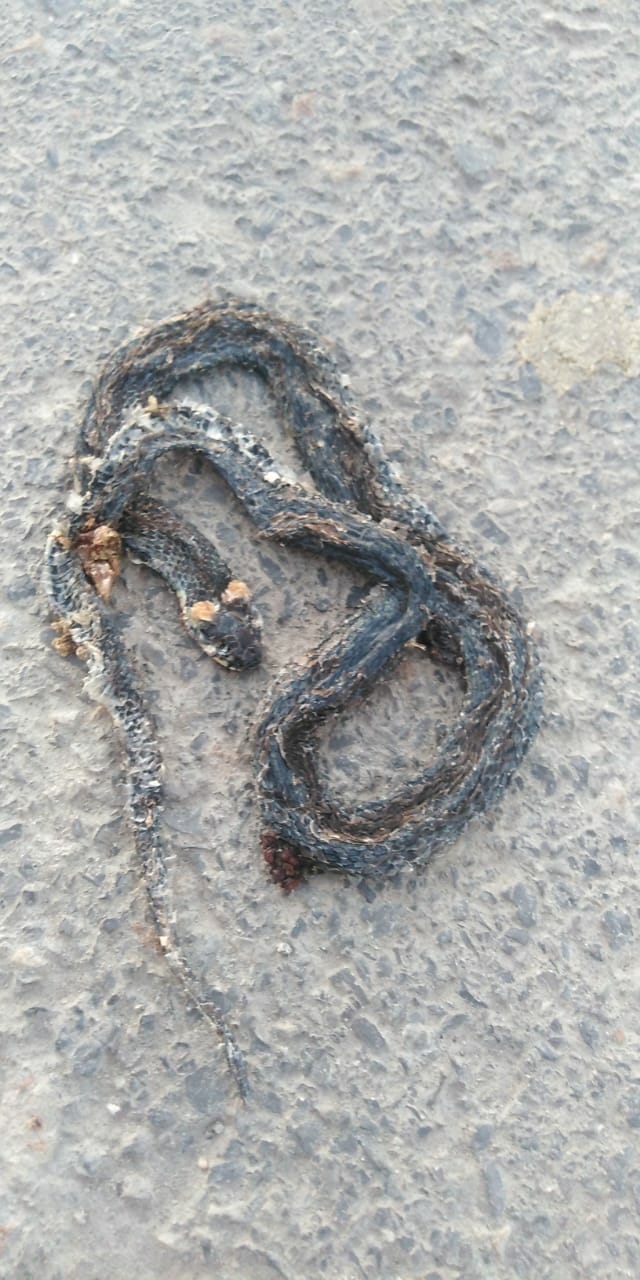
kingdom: Animalia
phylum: Chordata
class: Squamata
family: Colubridae
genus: Natrix
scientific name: Natrix natrix
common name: Grass snake
